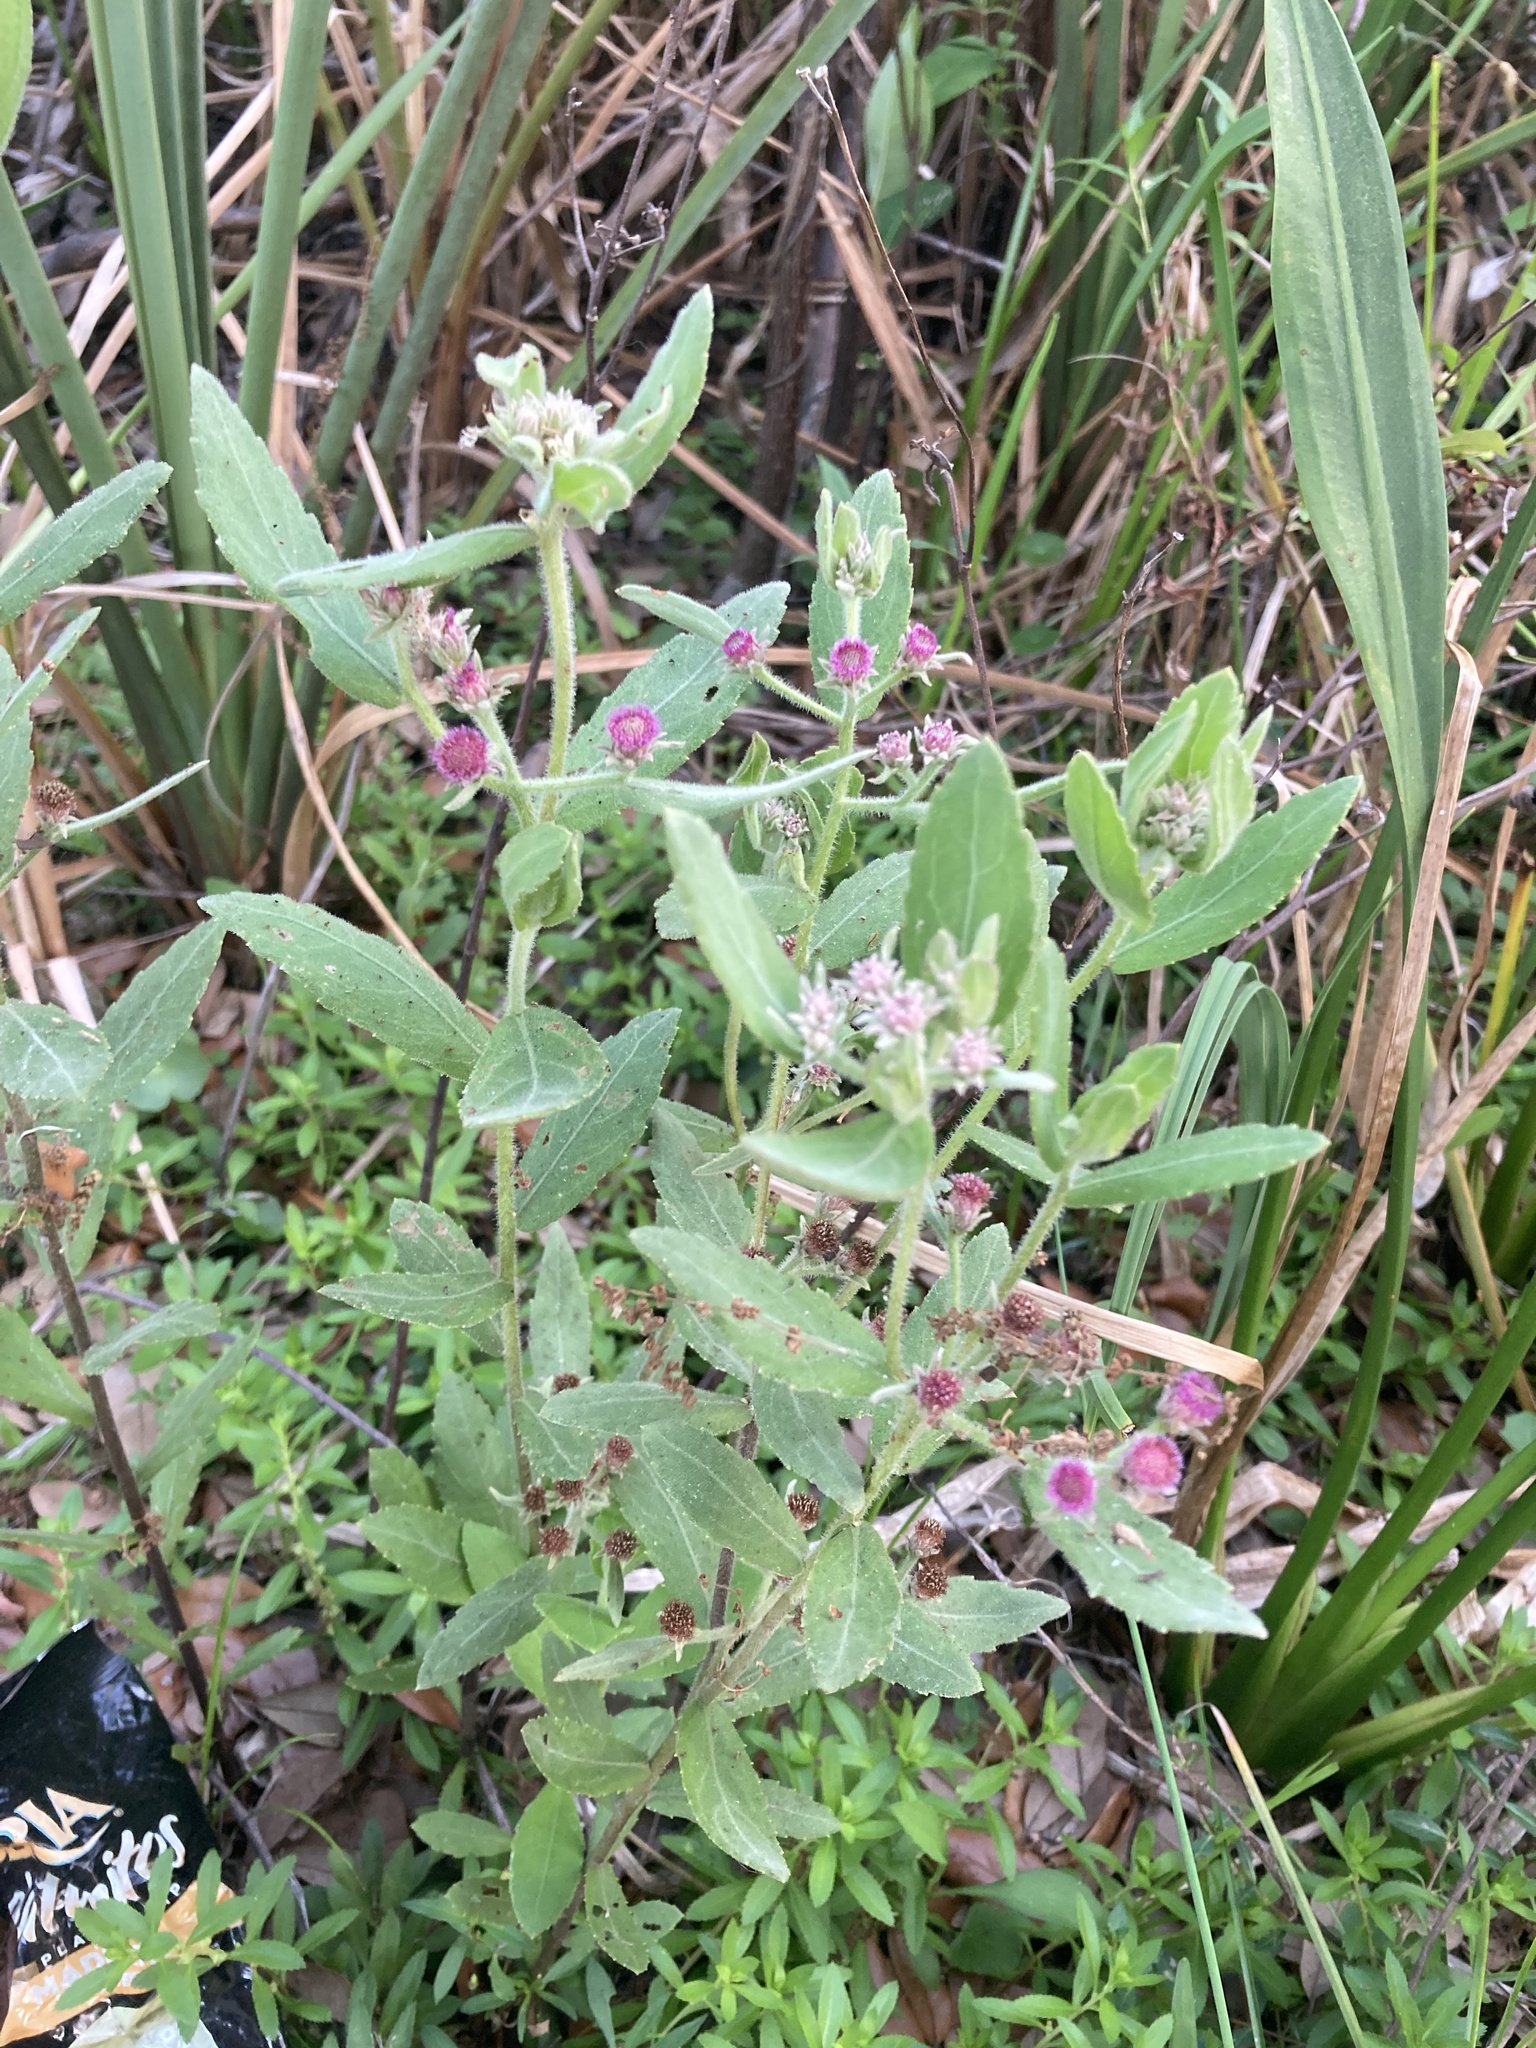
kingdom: Plantae
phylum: Tracheophyta
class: Magnoliopsida
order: Asterales
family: Asteraceae
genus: Pluchea
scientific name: Pluchea baccharis
